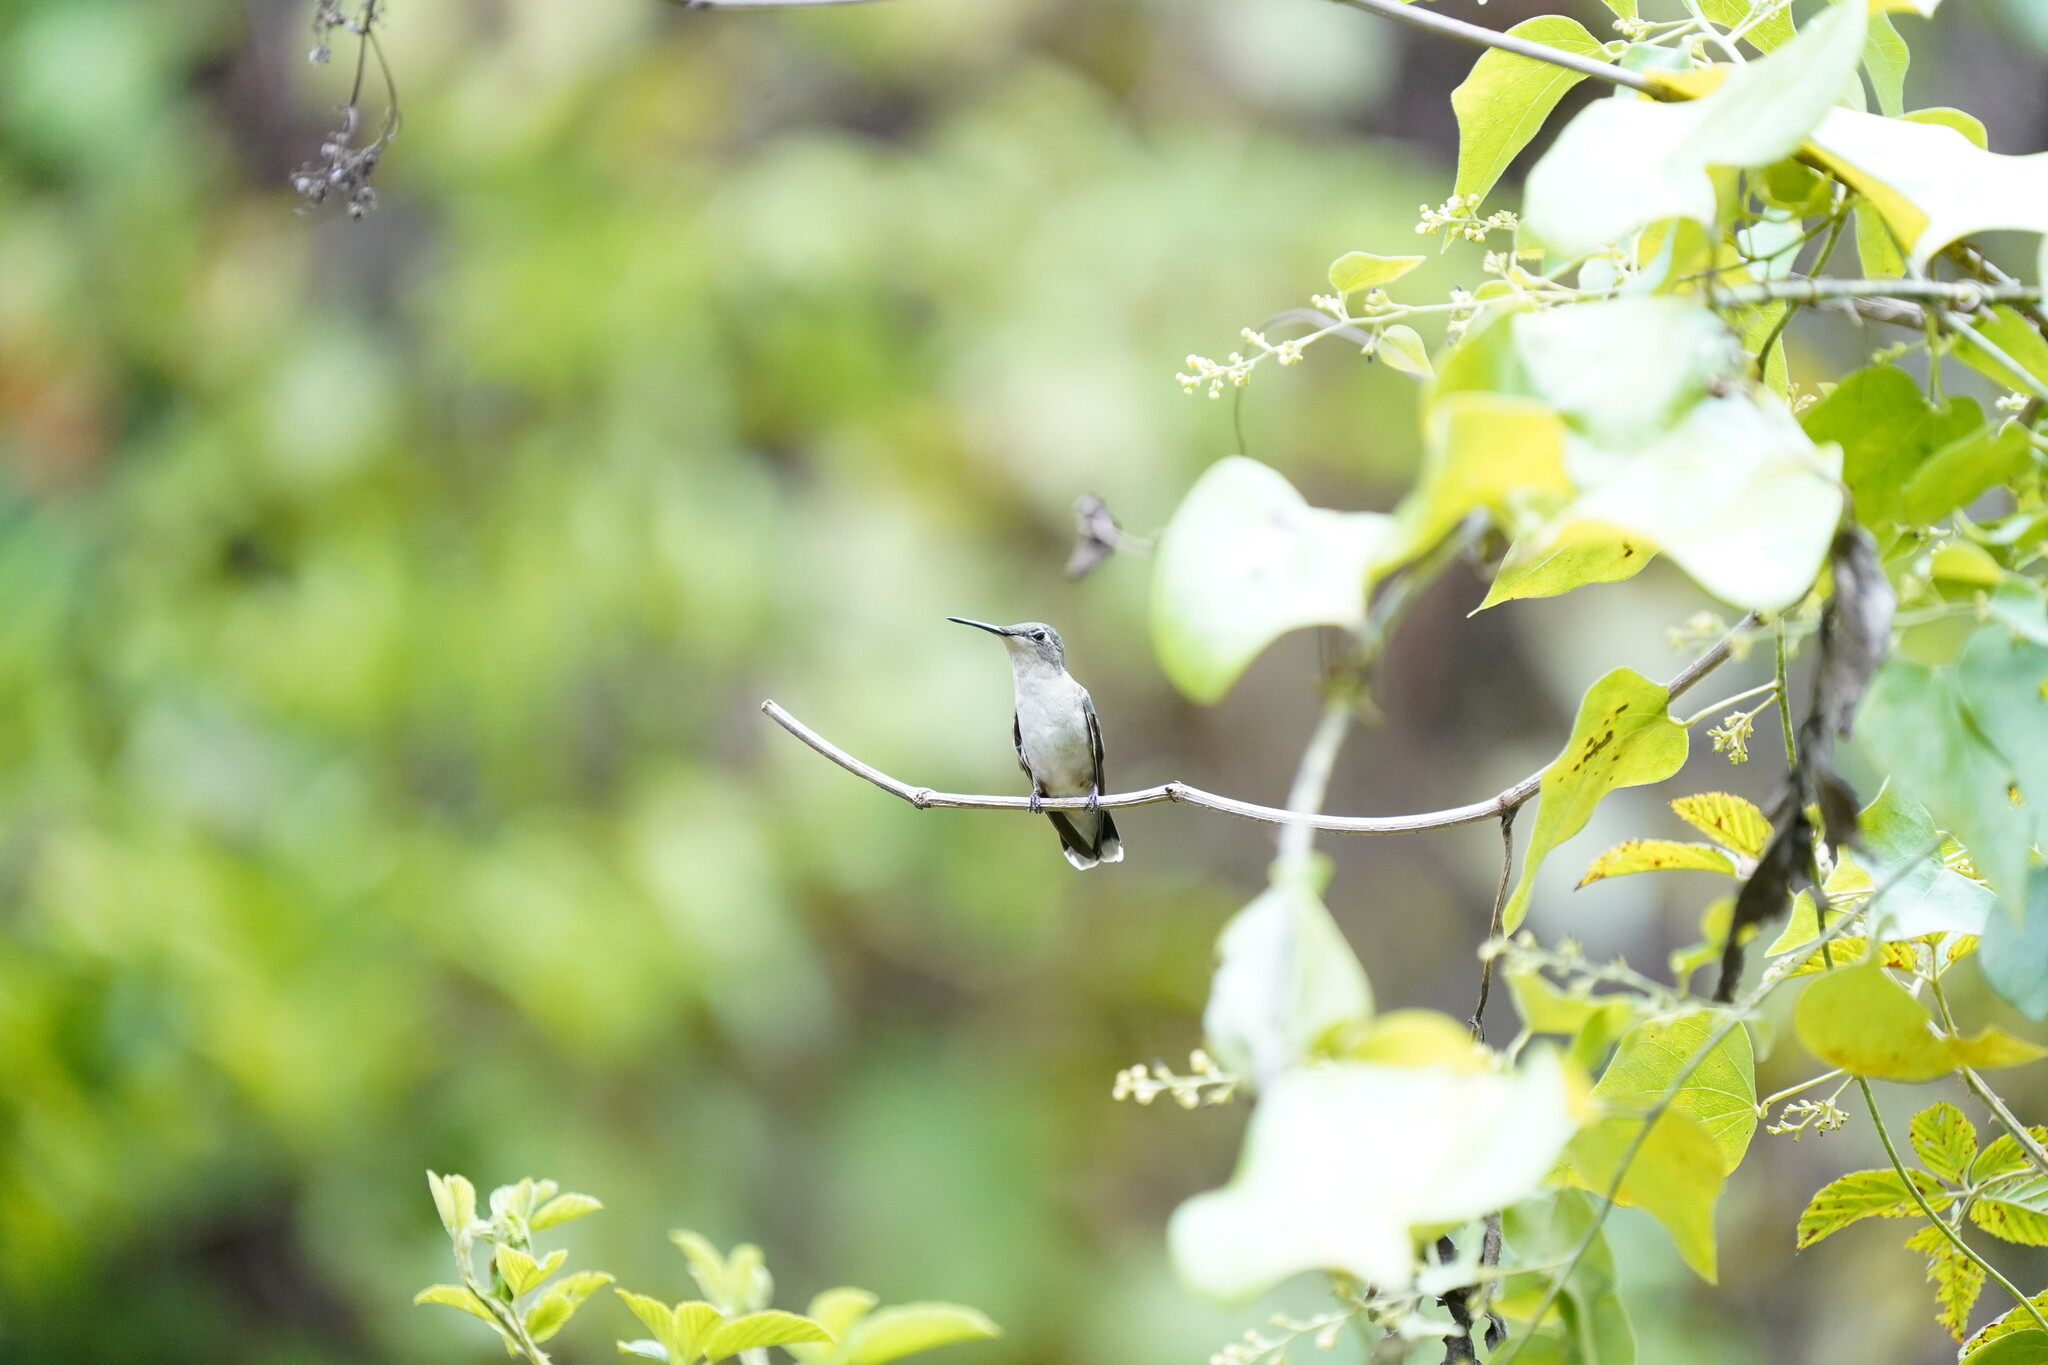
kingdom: Animalia
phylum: Chordata
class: Aves
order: Apodiformes
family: Trochilidae
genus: Archilochus
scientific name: Archilochus colubris
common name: Ruby-throated hummingbird
